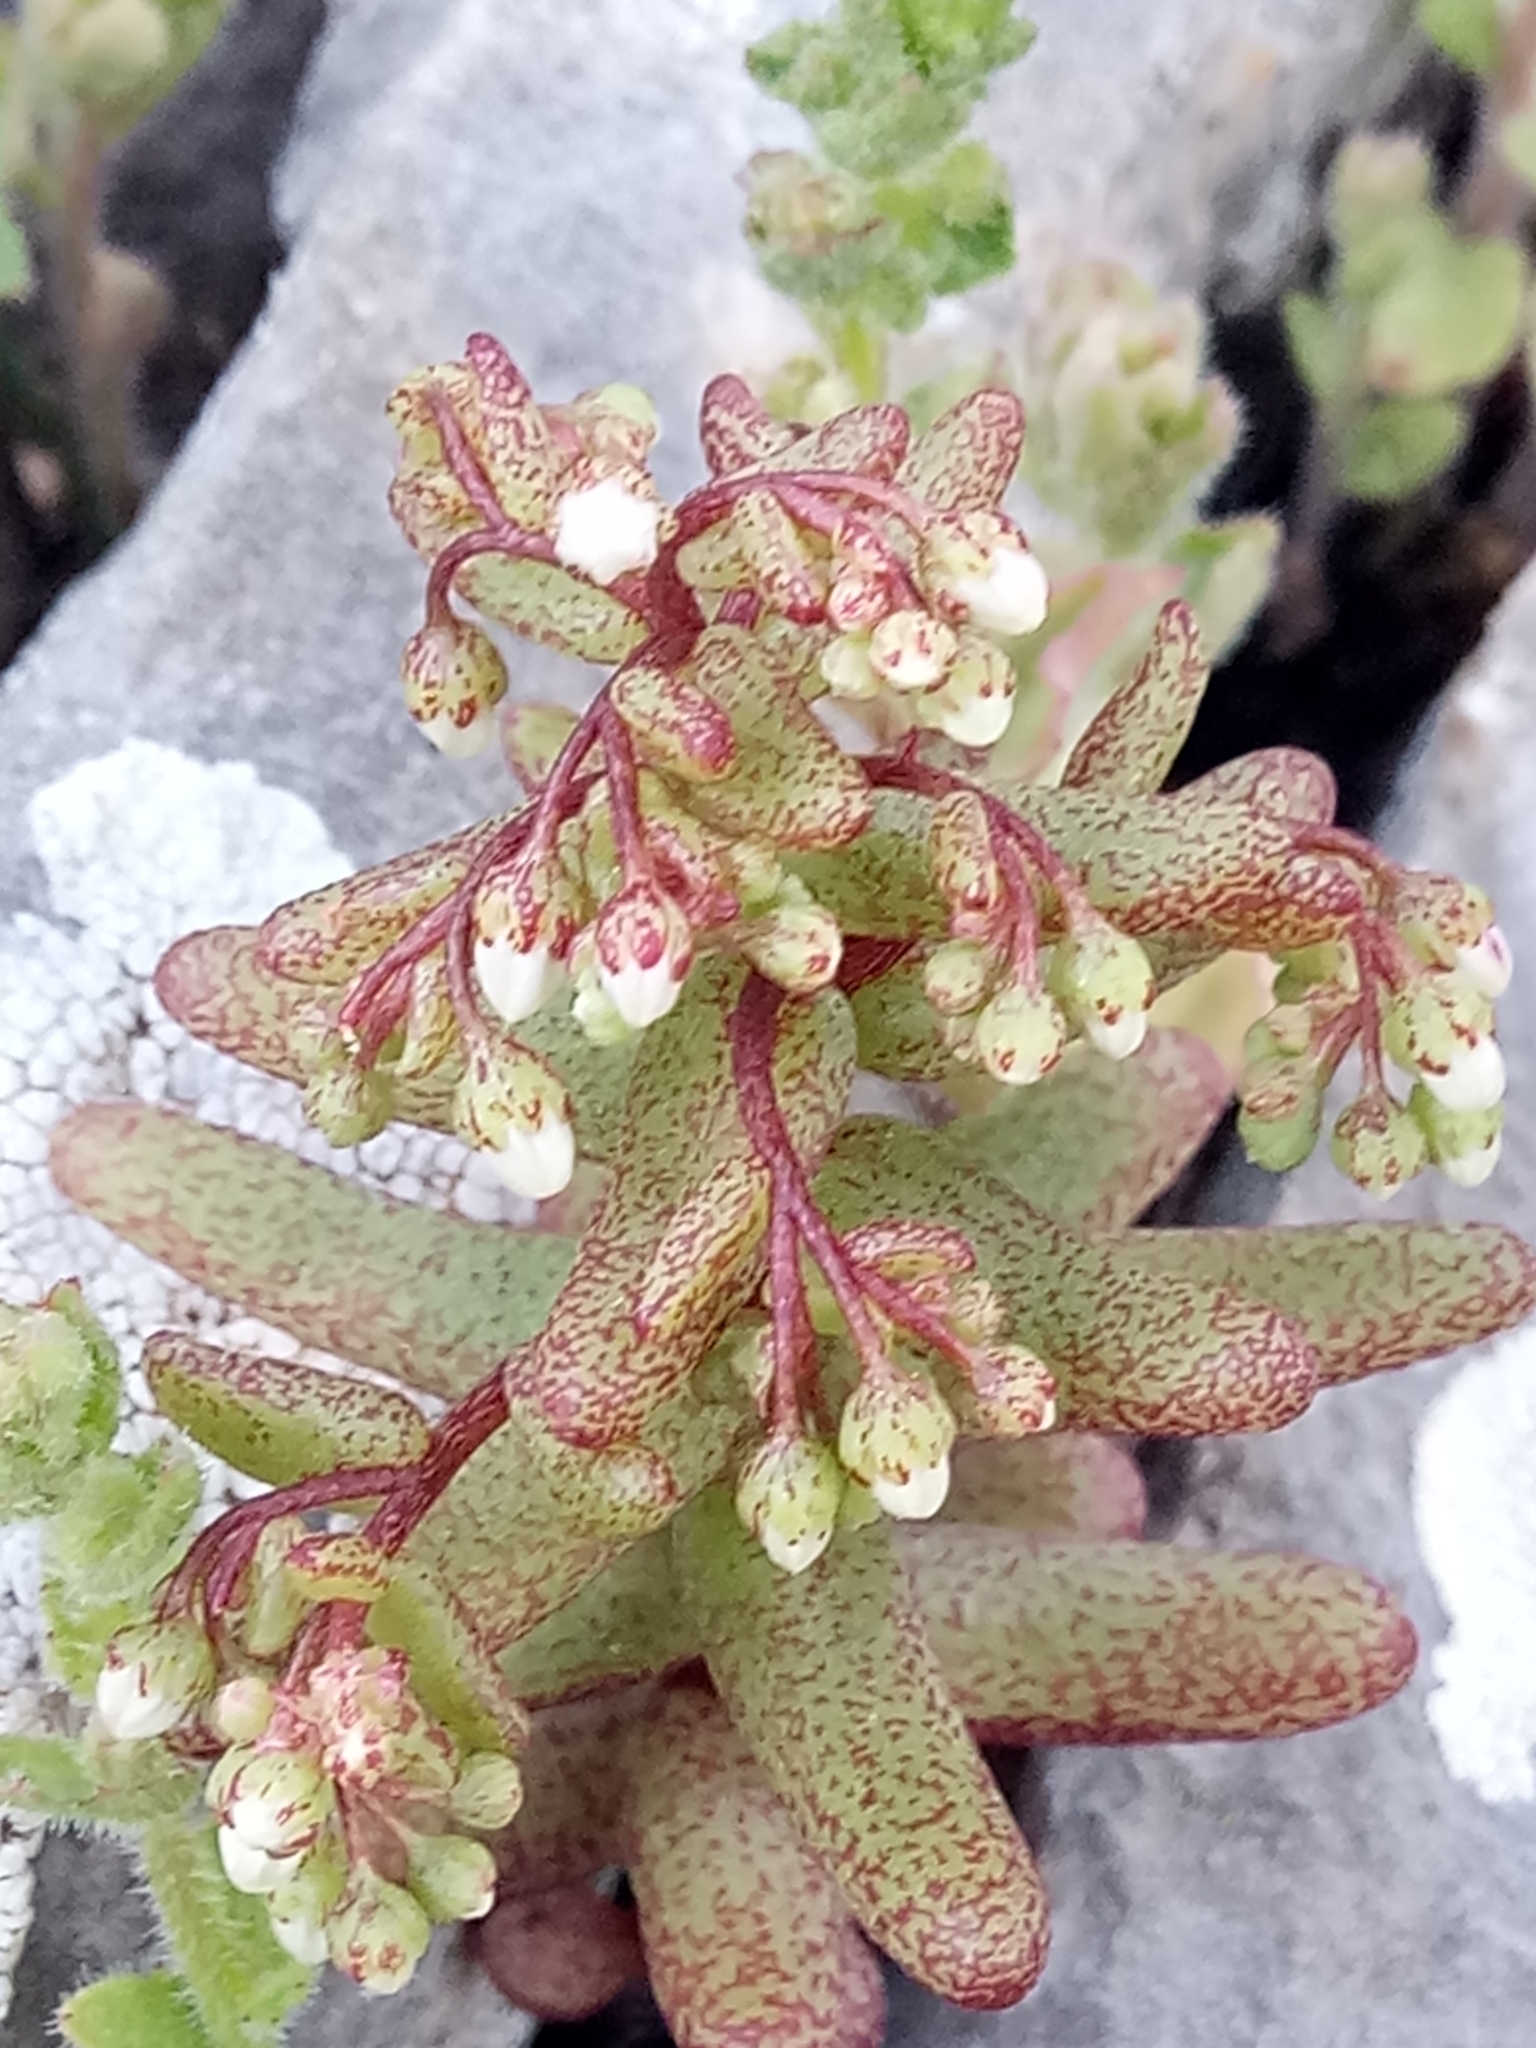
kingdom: Plantae
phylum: Tracheophyta
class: Magnoliopsida
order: Saxifragales
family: Crassulaceae
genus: Sedum
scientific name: Sedum caeruleum
